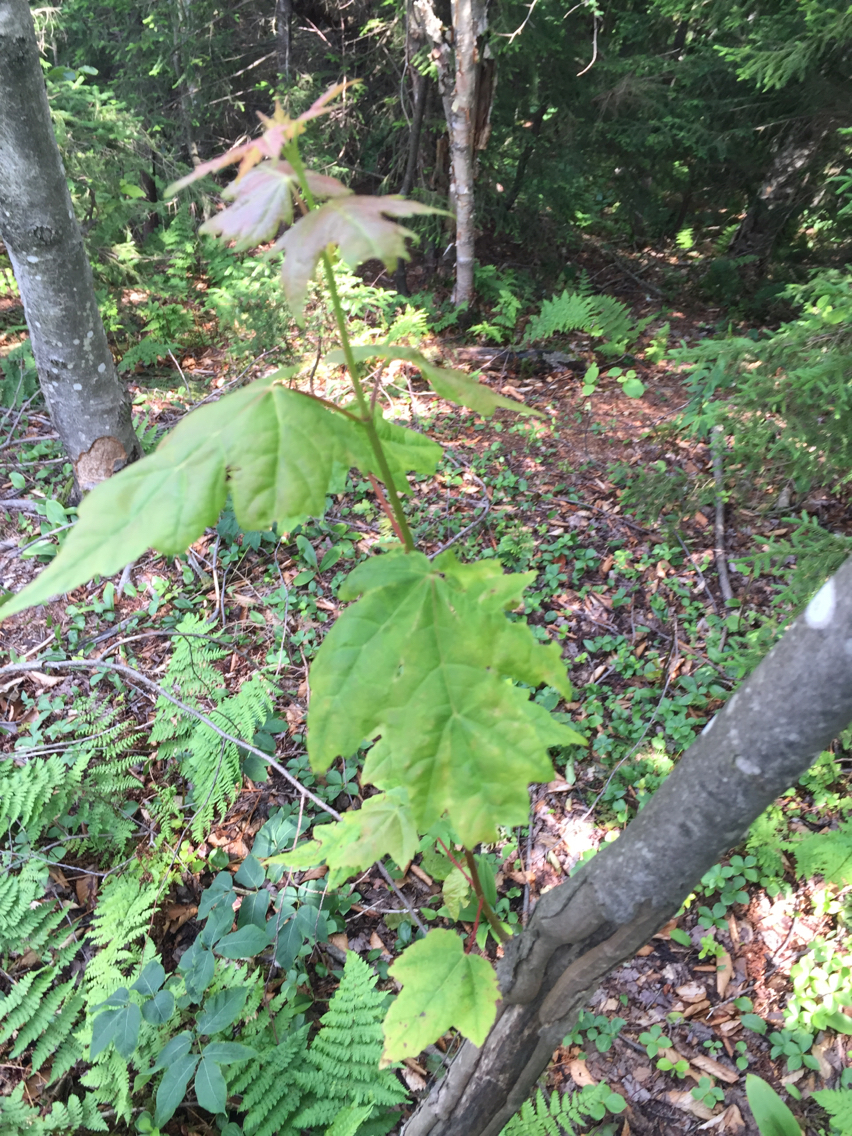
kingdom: Plantae
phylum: Tracheophyta
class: Magnoliopsida
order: Sapindales
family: Sapindaceae
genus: Acer
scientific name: Acer rubrum
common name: Red maple
